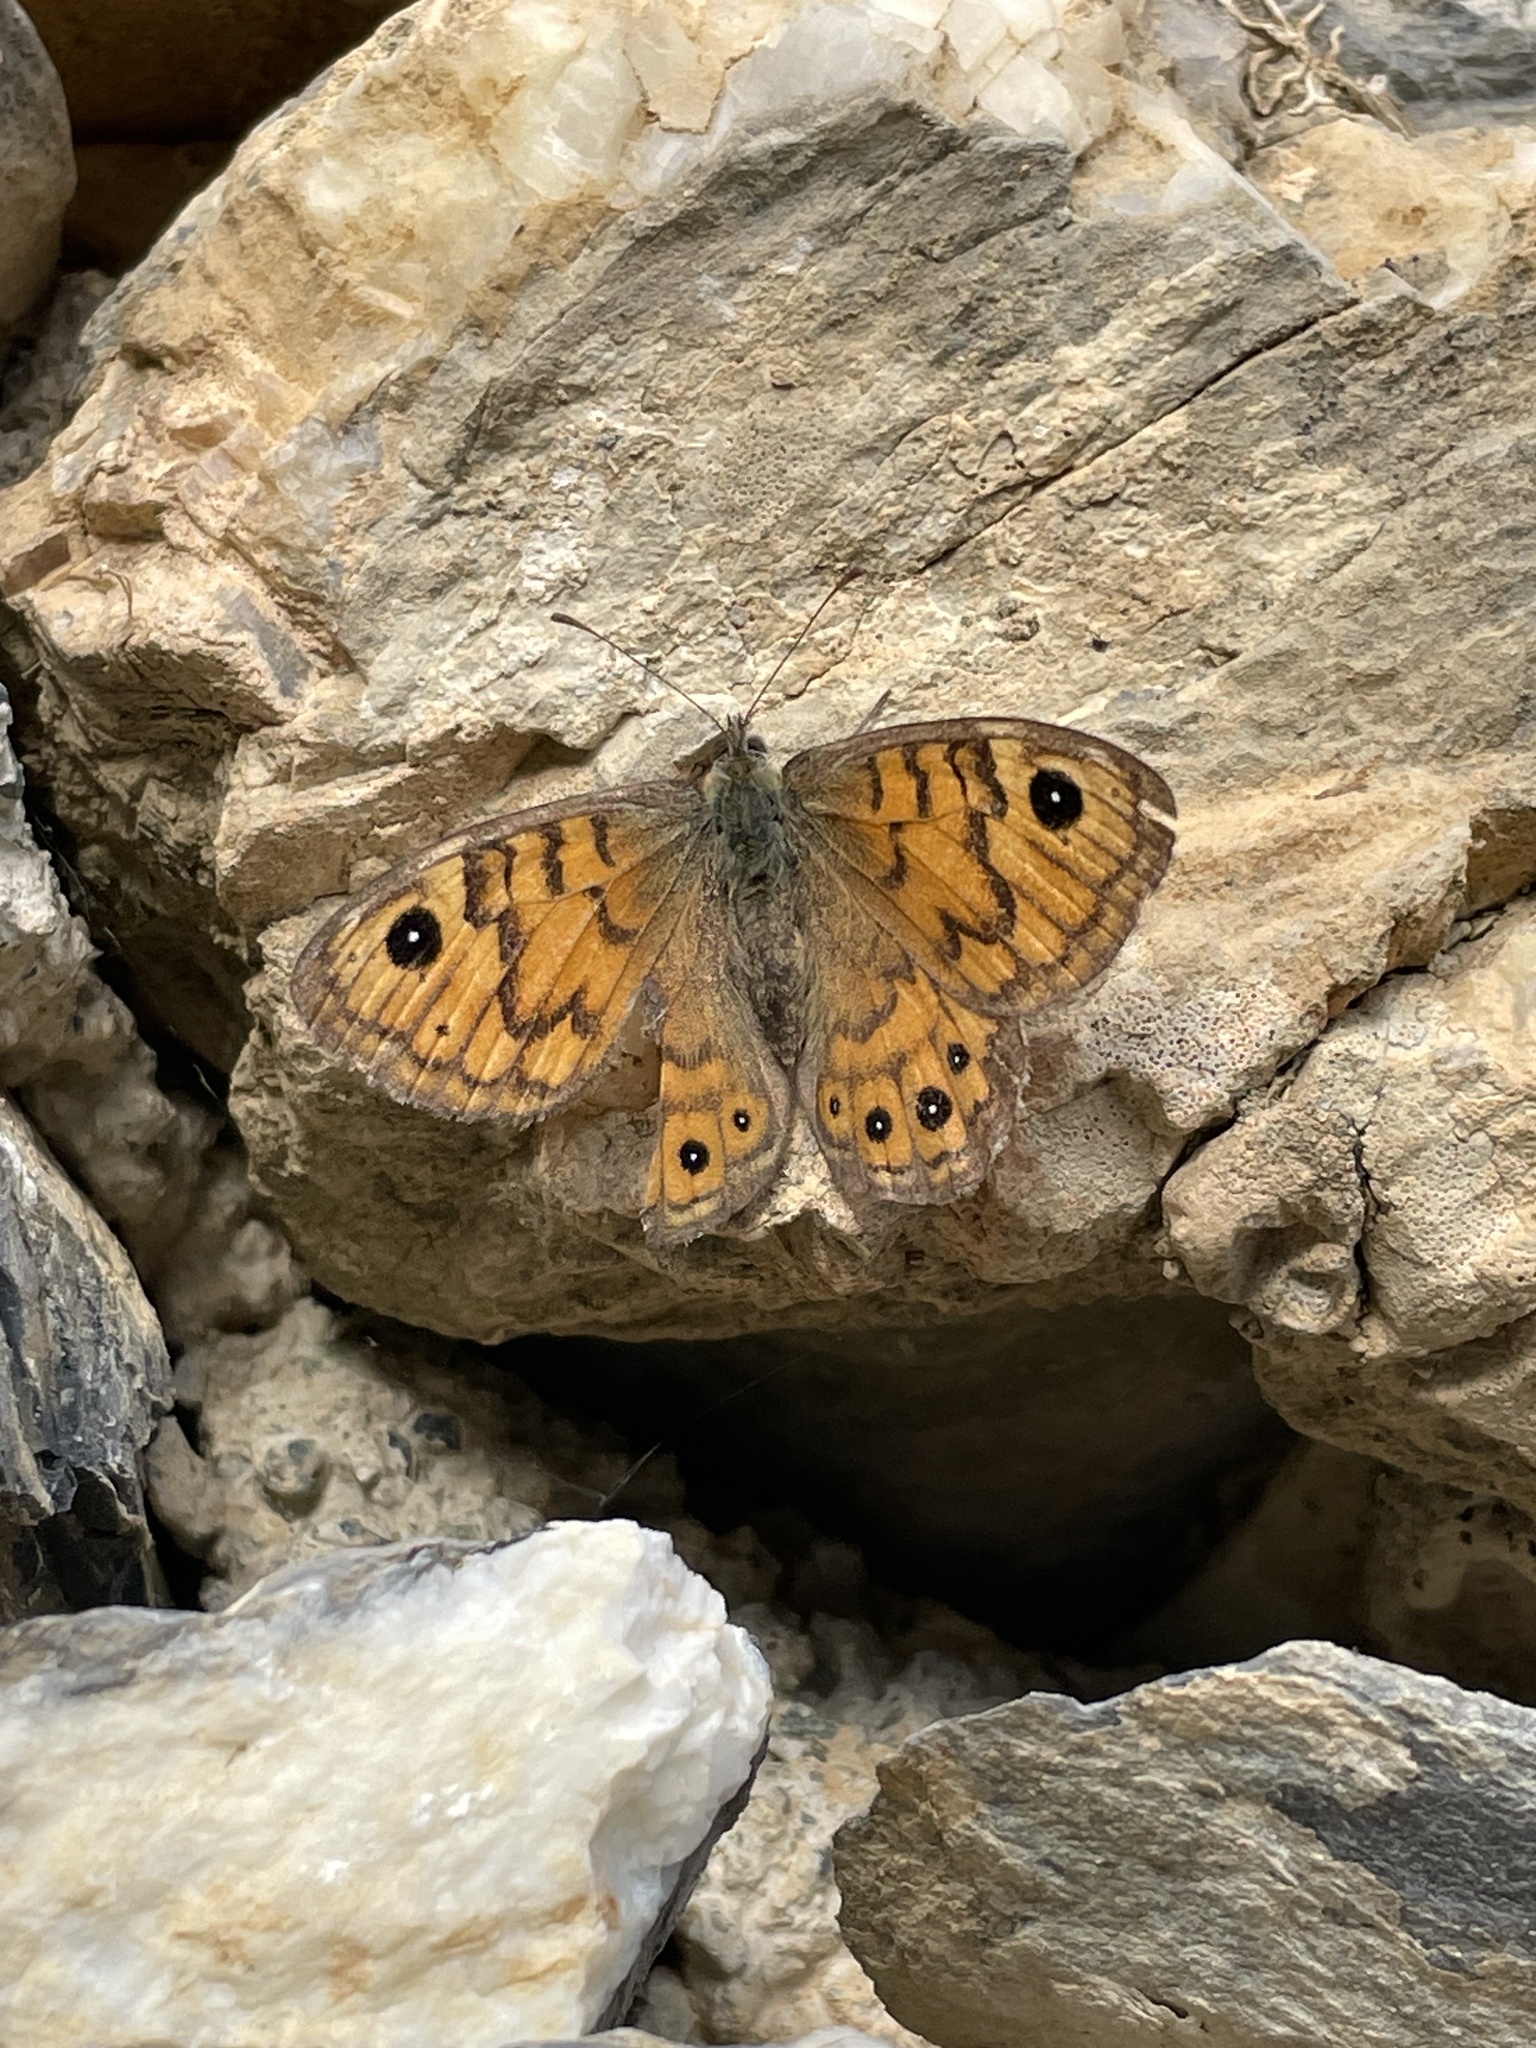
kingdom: Animalia
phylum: Arthropoda
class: Insecta
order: Lepidoptera
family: Nymphalidae
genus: Pararge
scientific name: Pararge Lasiommata megera
